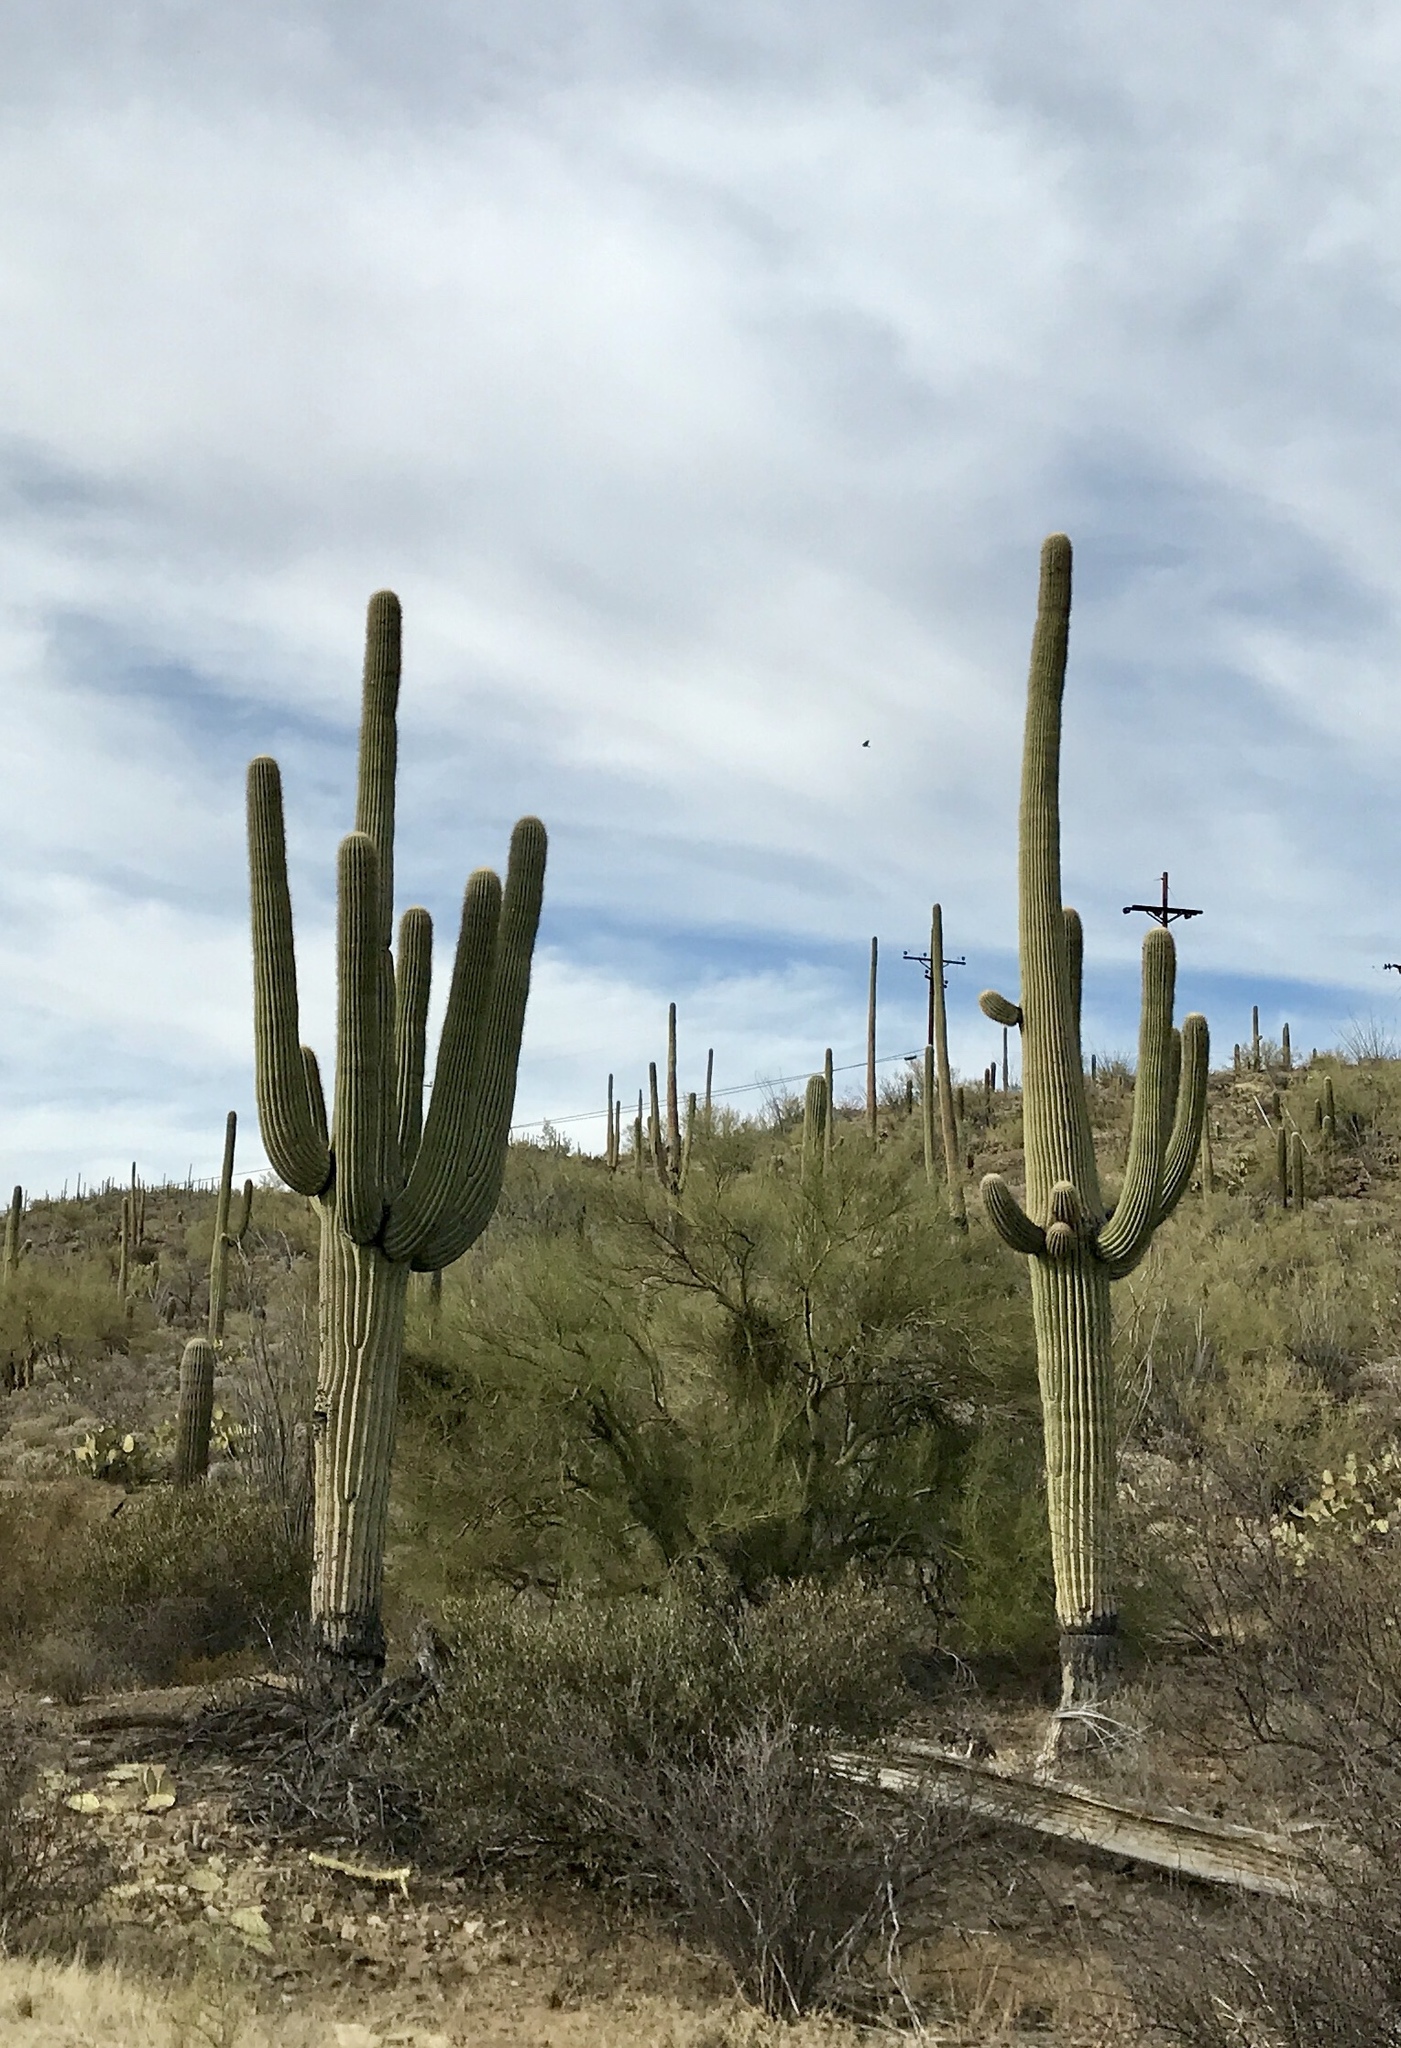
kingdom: Plantae
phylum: Tracheophyta
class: Magnoliopsida
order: Caryophyllales
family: Cactaceae
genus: Carnegiea
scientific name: Carnegiea gigantea
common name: Saguaro
